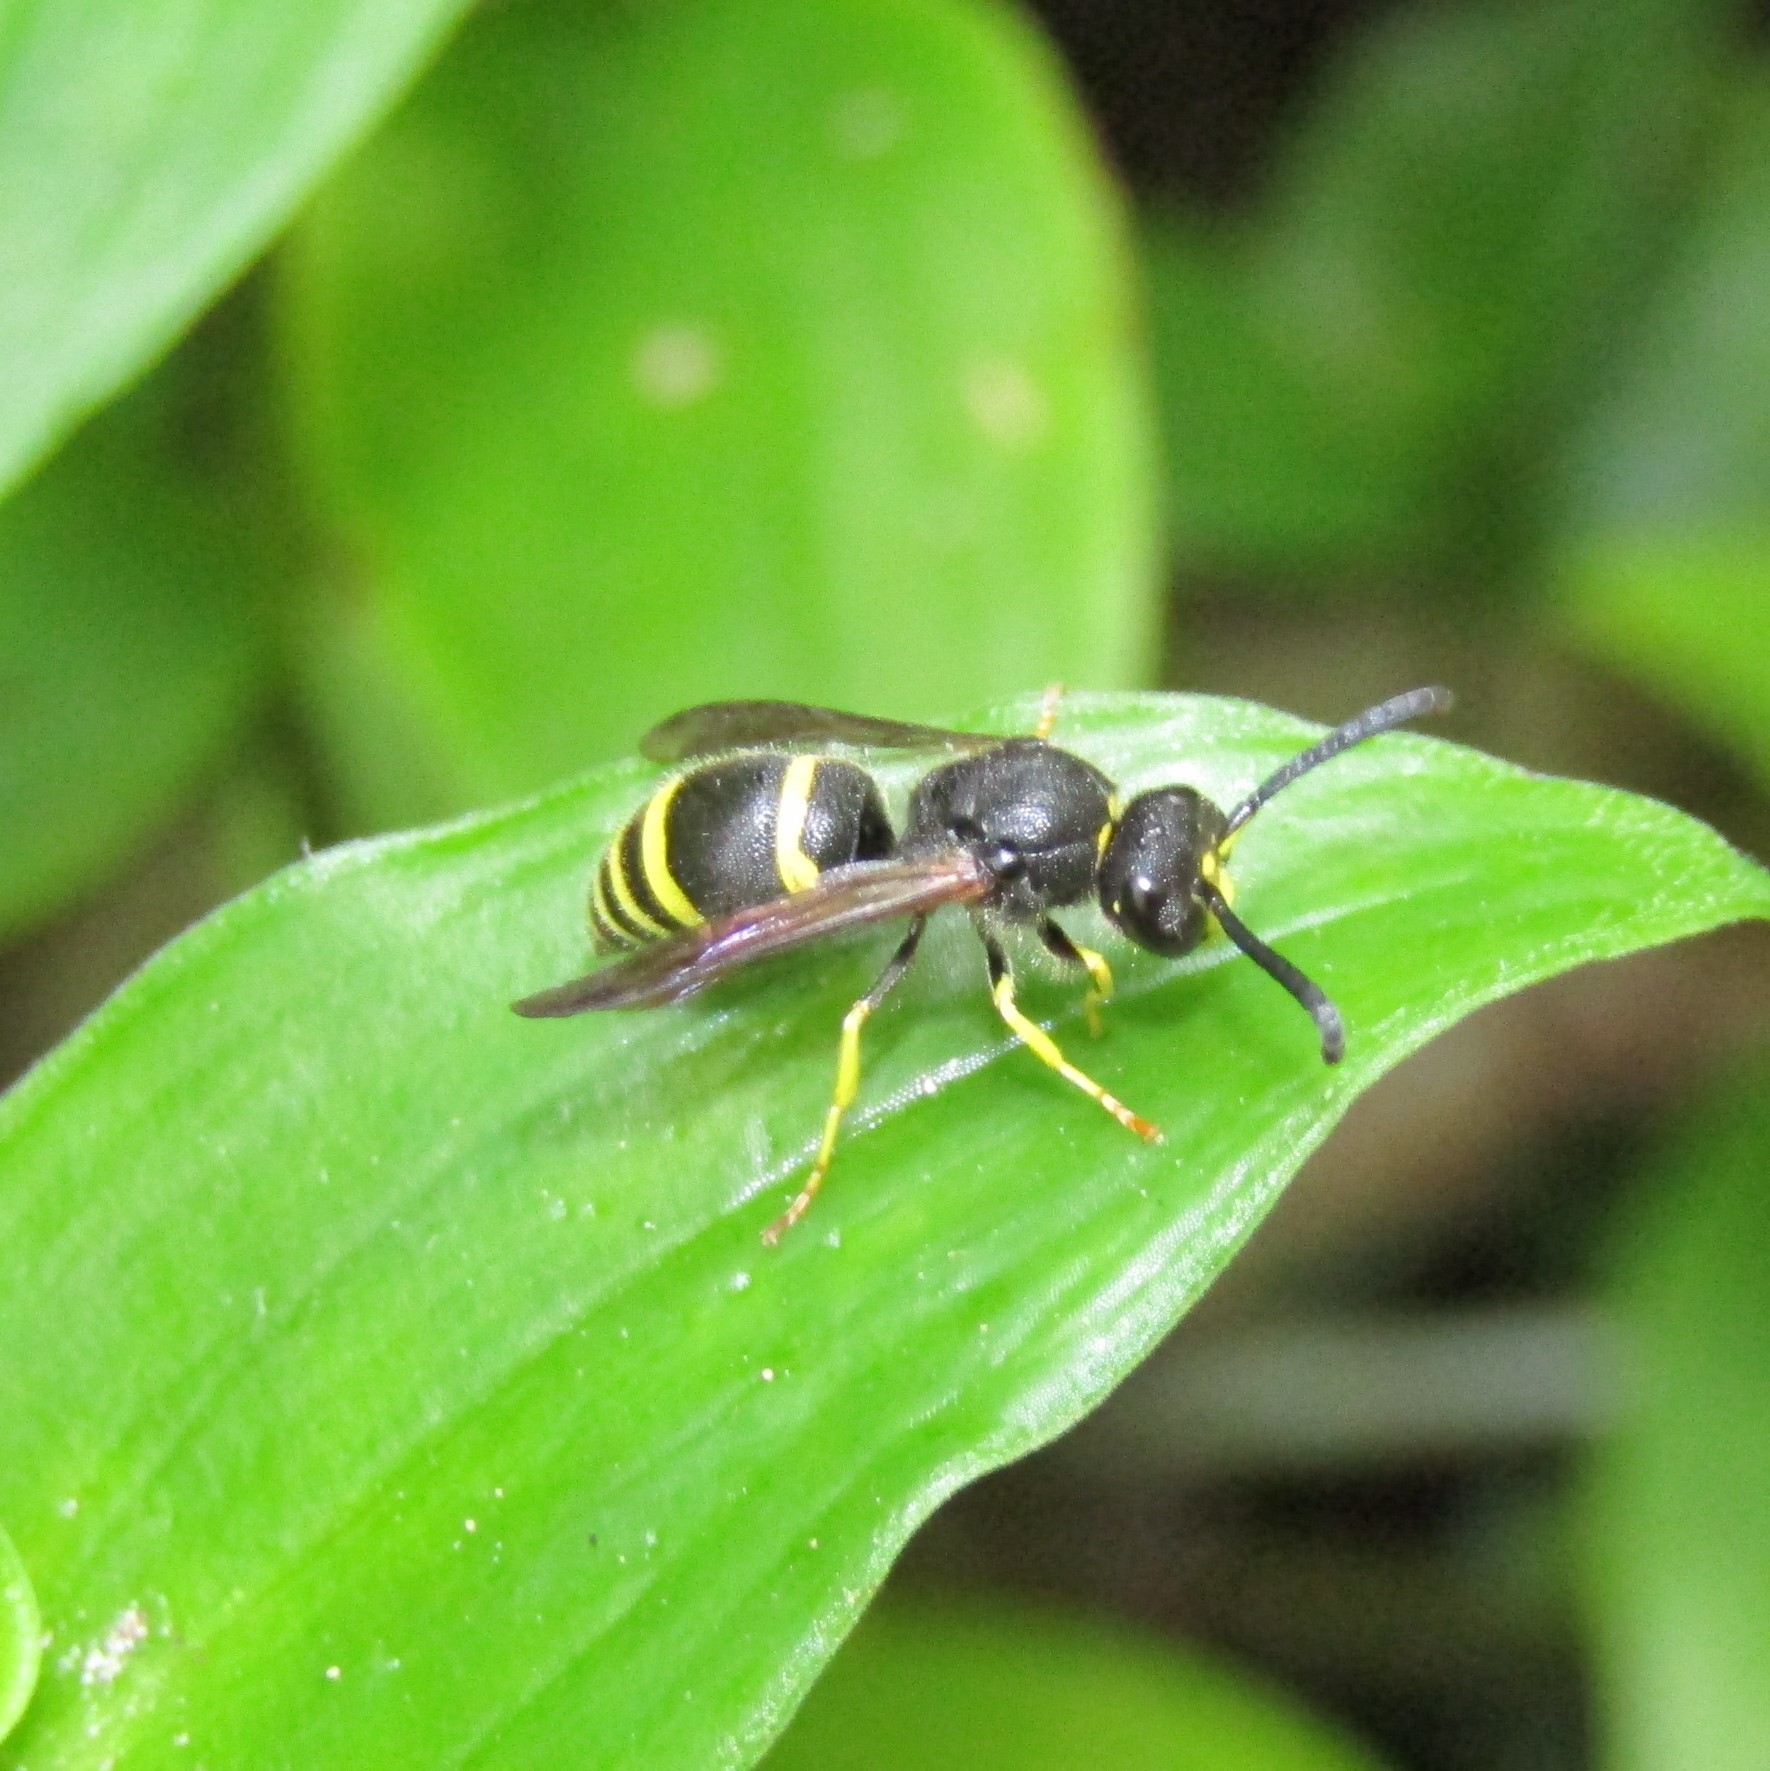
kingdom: Animalia
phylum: Arthropoda
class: Insecta
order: Hymenoptera
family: Vespidae
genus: Ancistrocerus
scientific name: Ancistrocerus gazella
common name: European tube wasp
